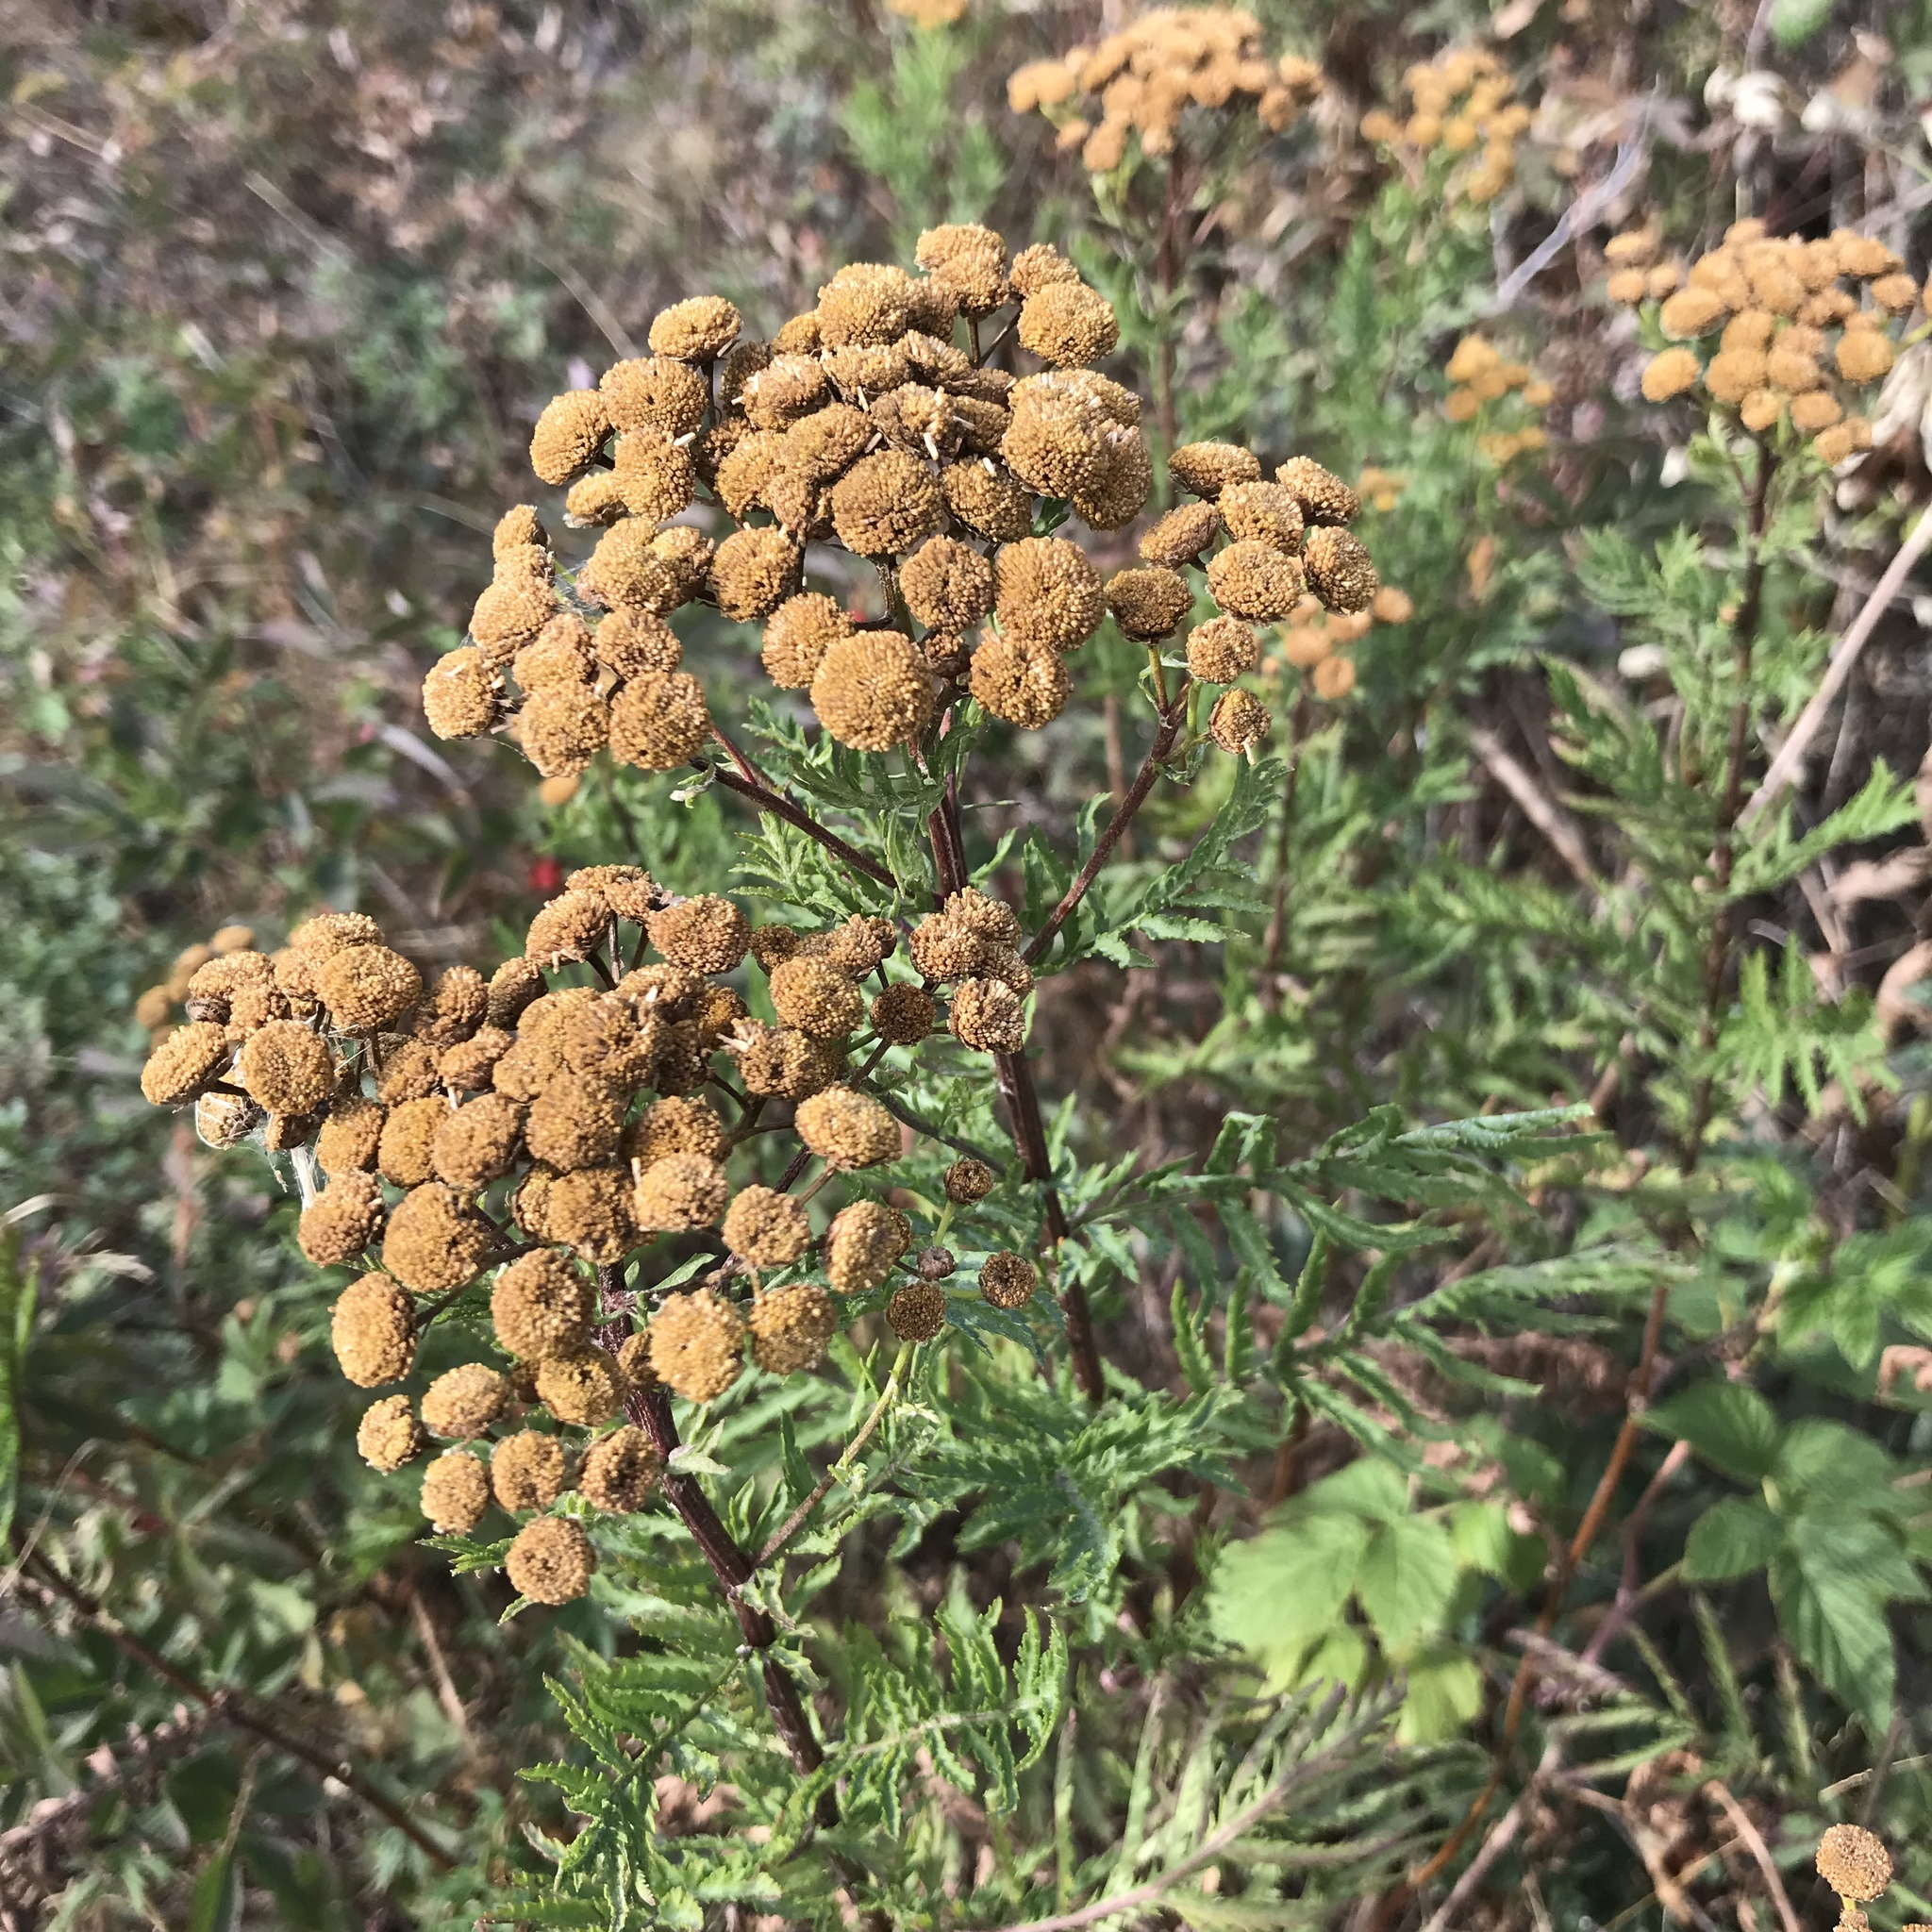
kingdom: Plantae
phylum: Tracheophyta
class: Magnoliopsida
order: Asterales
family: Asteraceae
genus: Tanacetum
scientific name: Tanacetum vulgare
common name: Common tansy
